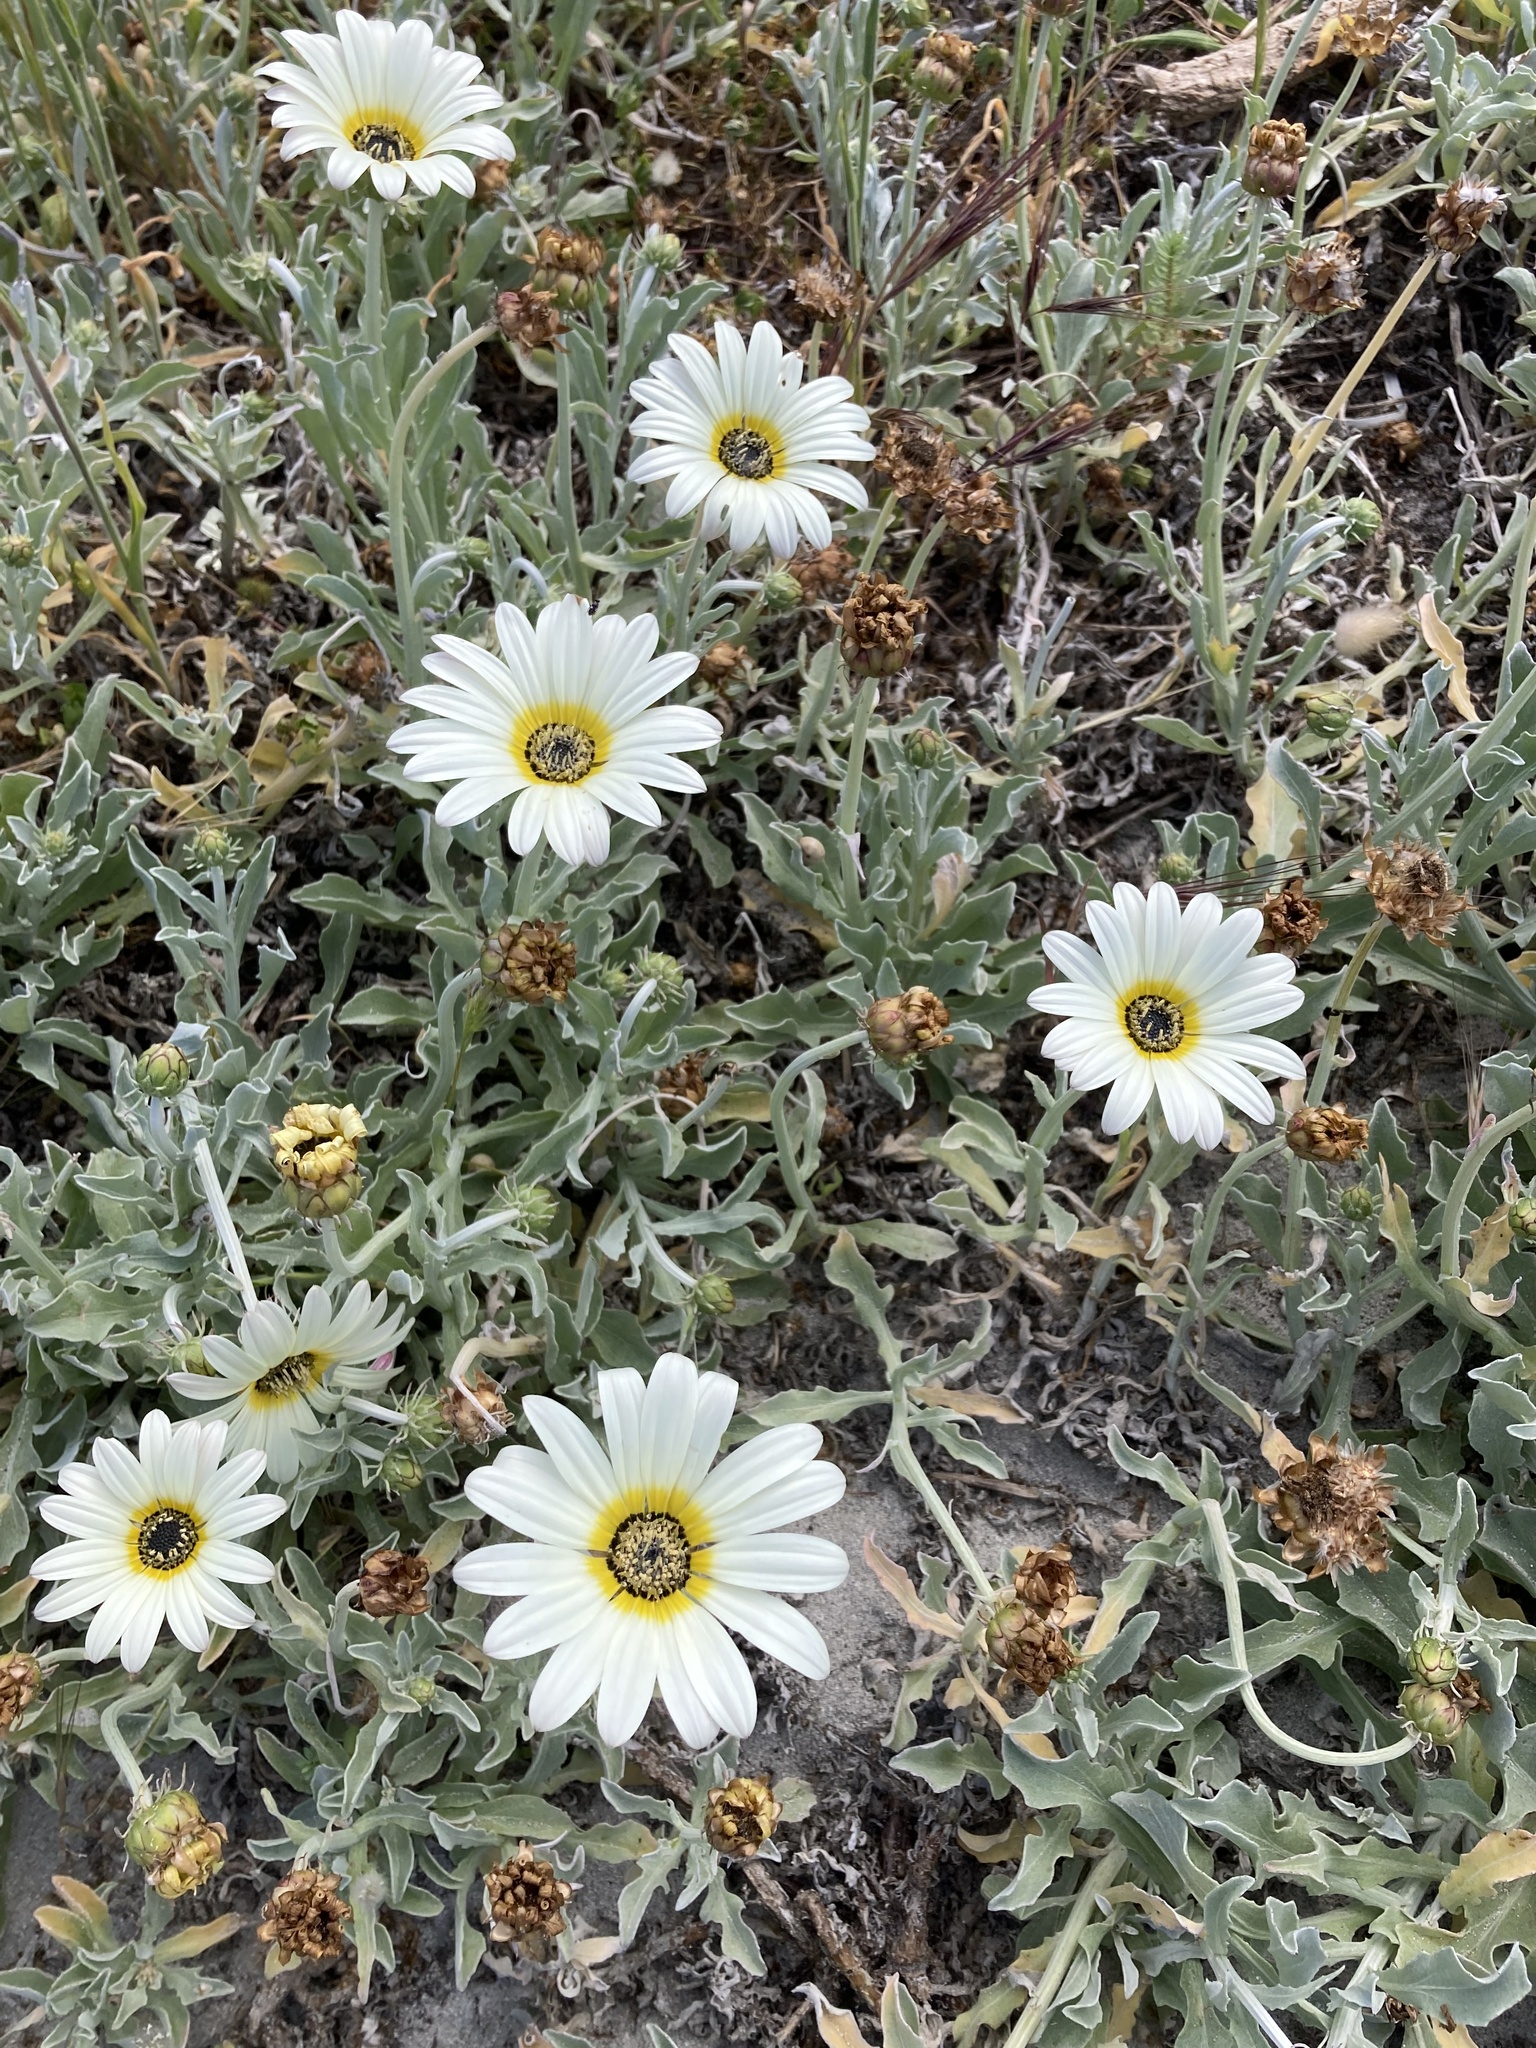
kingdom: Plantae
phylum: Tracheophyta
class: Magnoliopsida
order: Asterales
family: Asteraceae
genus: Arctotis
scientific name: Arctotis stoechadifolia
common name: African daisy
